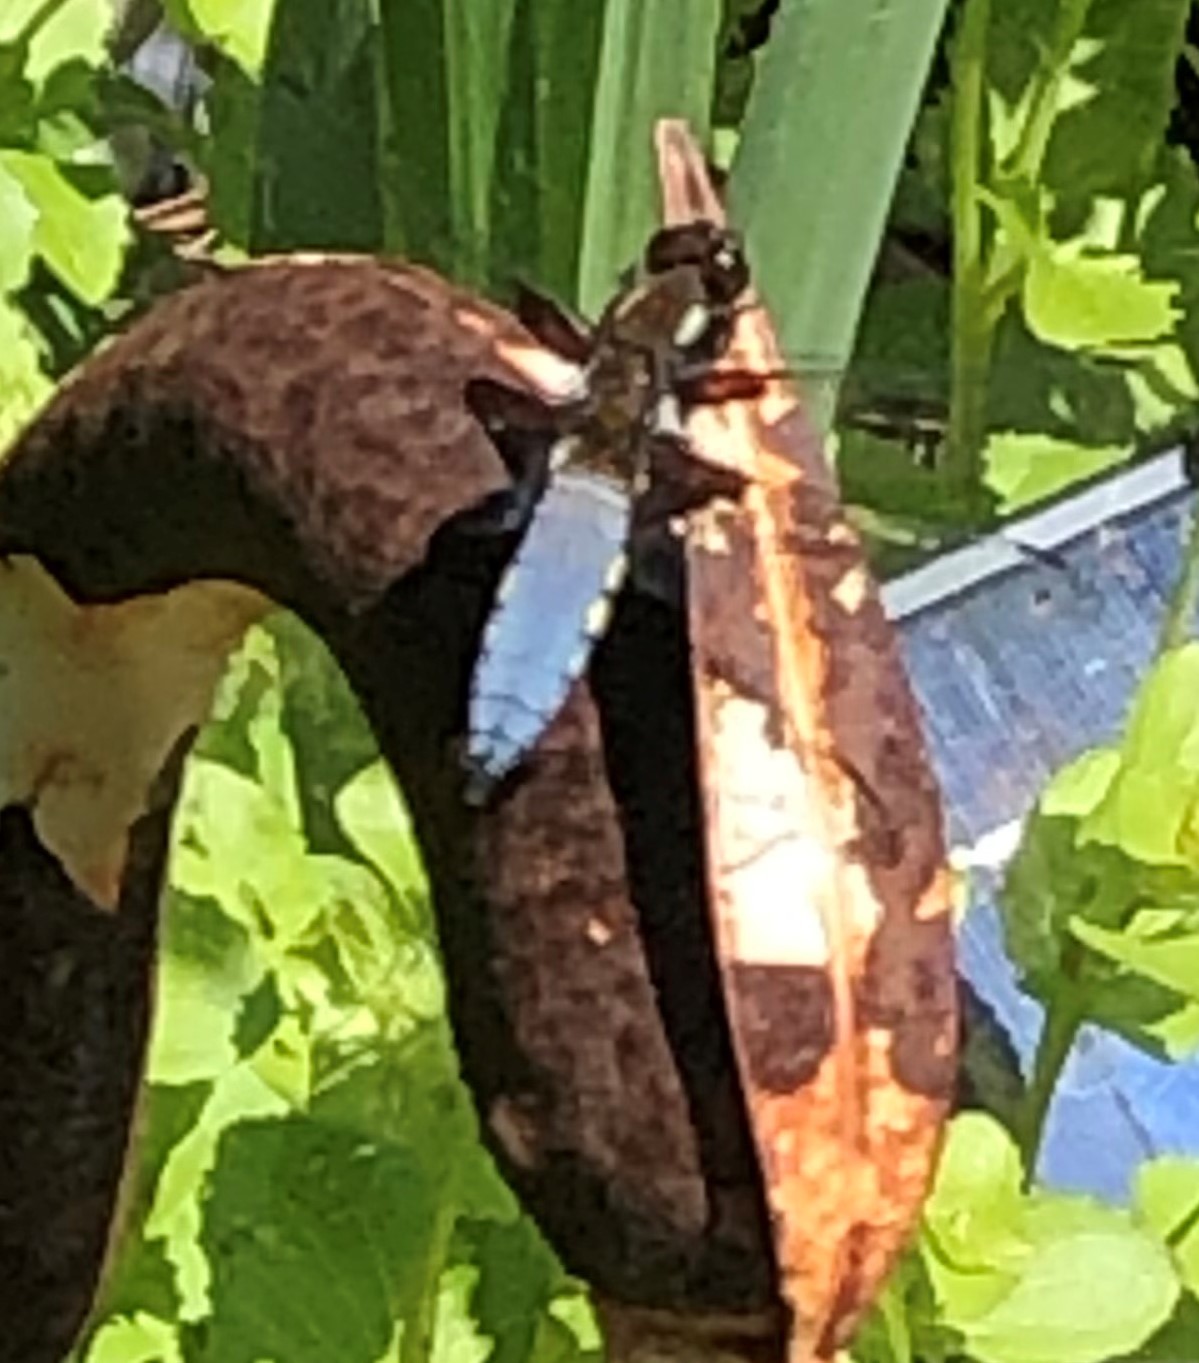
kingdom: Animalia
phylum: Arthropoda
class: Insecta
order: Odonata
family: Libellulidae
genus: Libellula
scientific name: Libellula depressa
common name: Broad-bodied chaser
